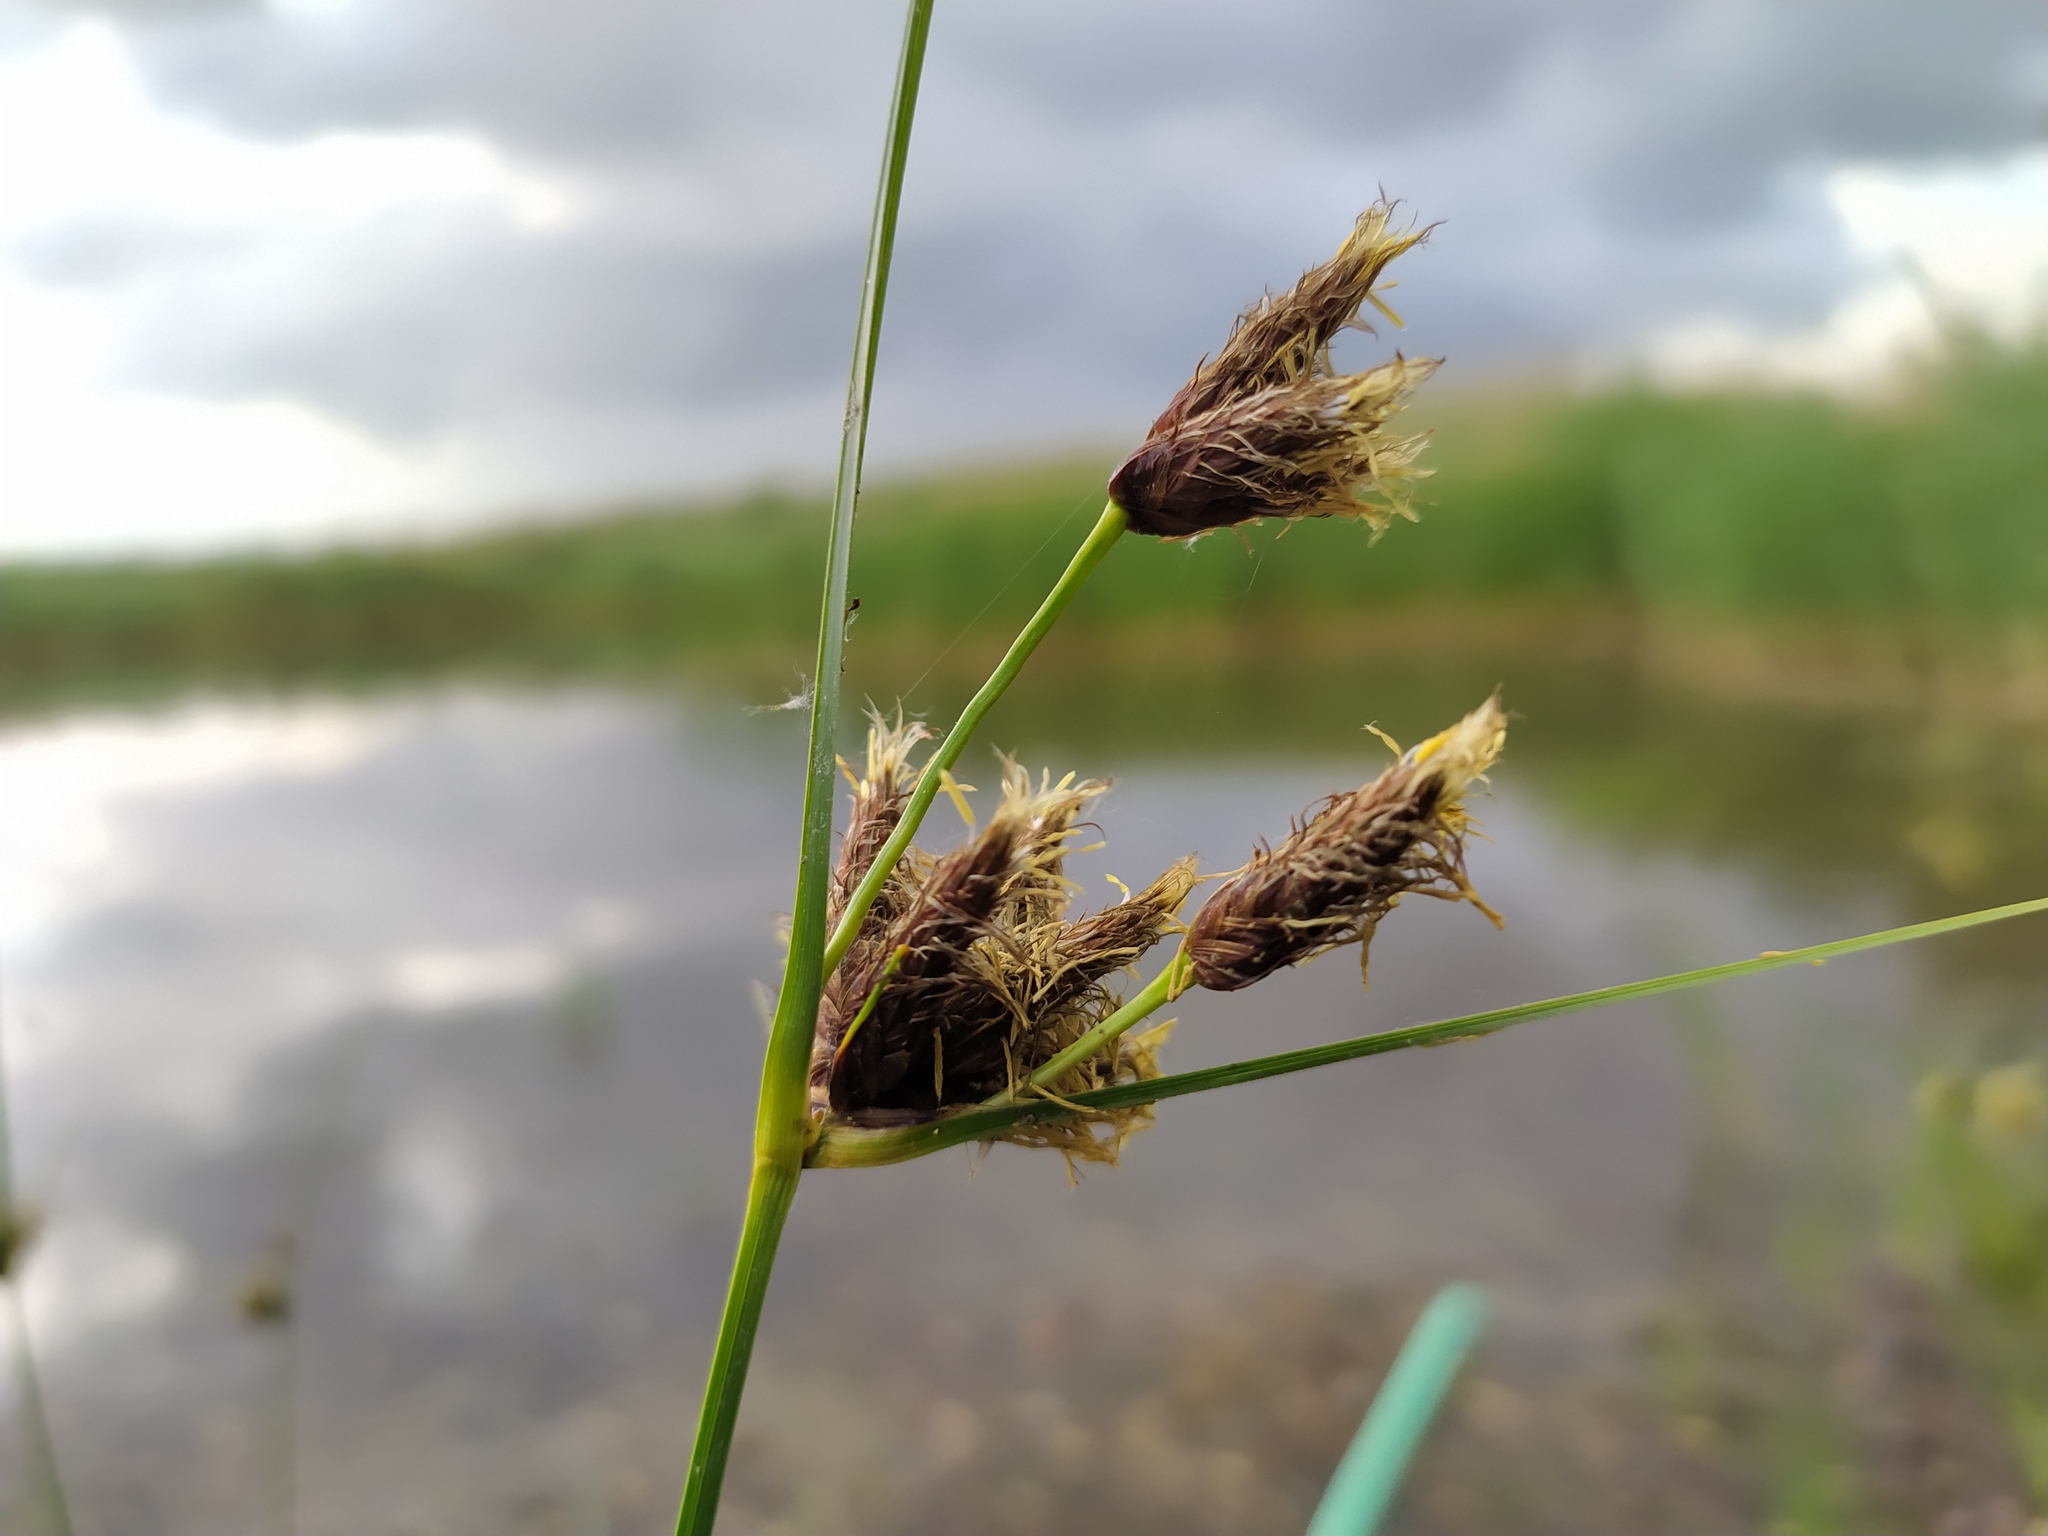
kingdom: Plantae
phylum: Tracheophyta
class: Liliopsida
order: Poales
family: Cyperaceae
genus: Bolboschoenus
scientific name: Bolboschoenus maritimus
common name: Sea club-rush
